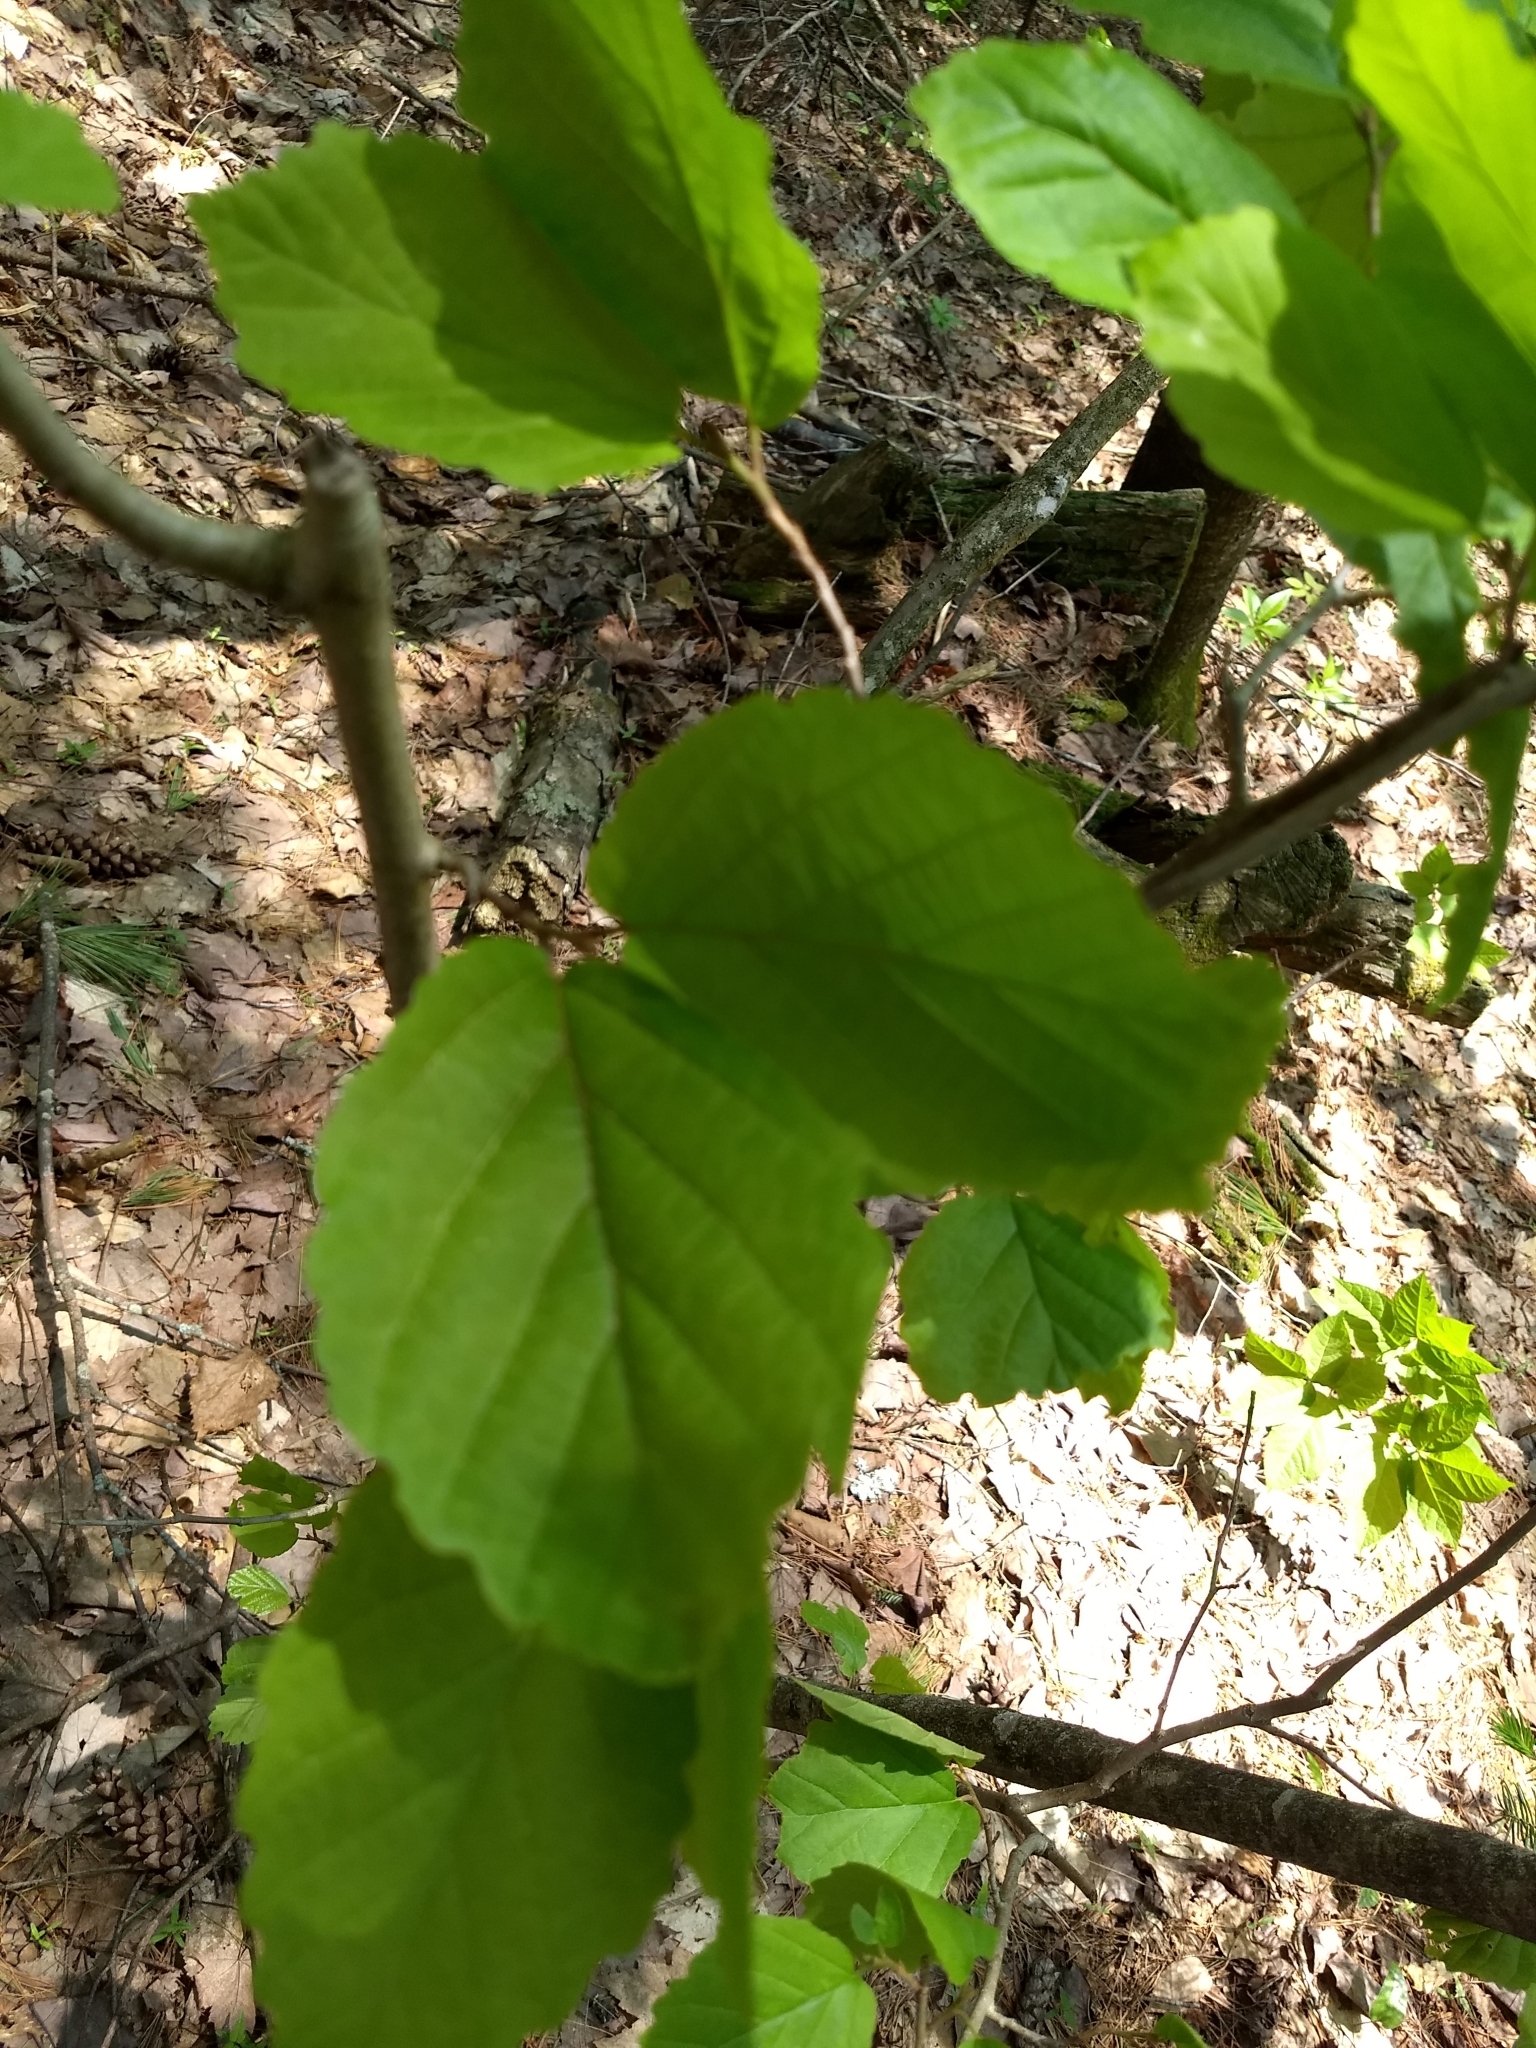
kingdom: Plantae
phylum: Tracheophyta
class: Magnoliopsida
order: Saxifragales
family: Hamamelidaceae
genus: Hamamelis
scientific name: Hamamelis virginiana
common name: Witch-hazel
